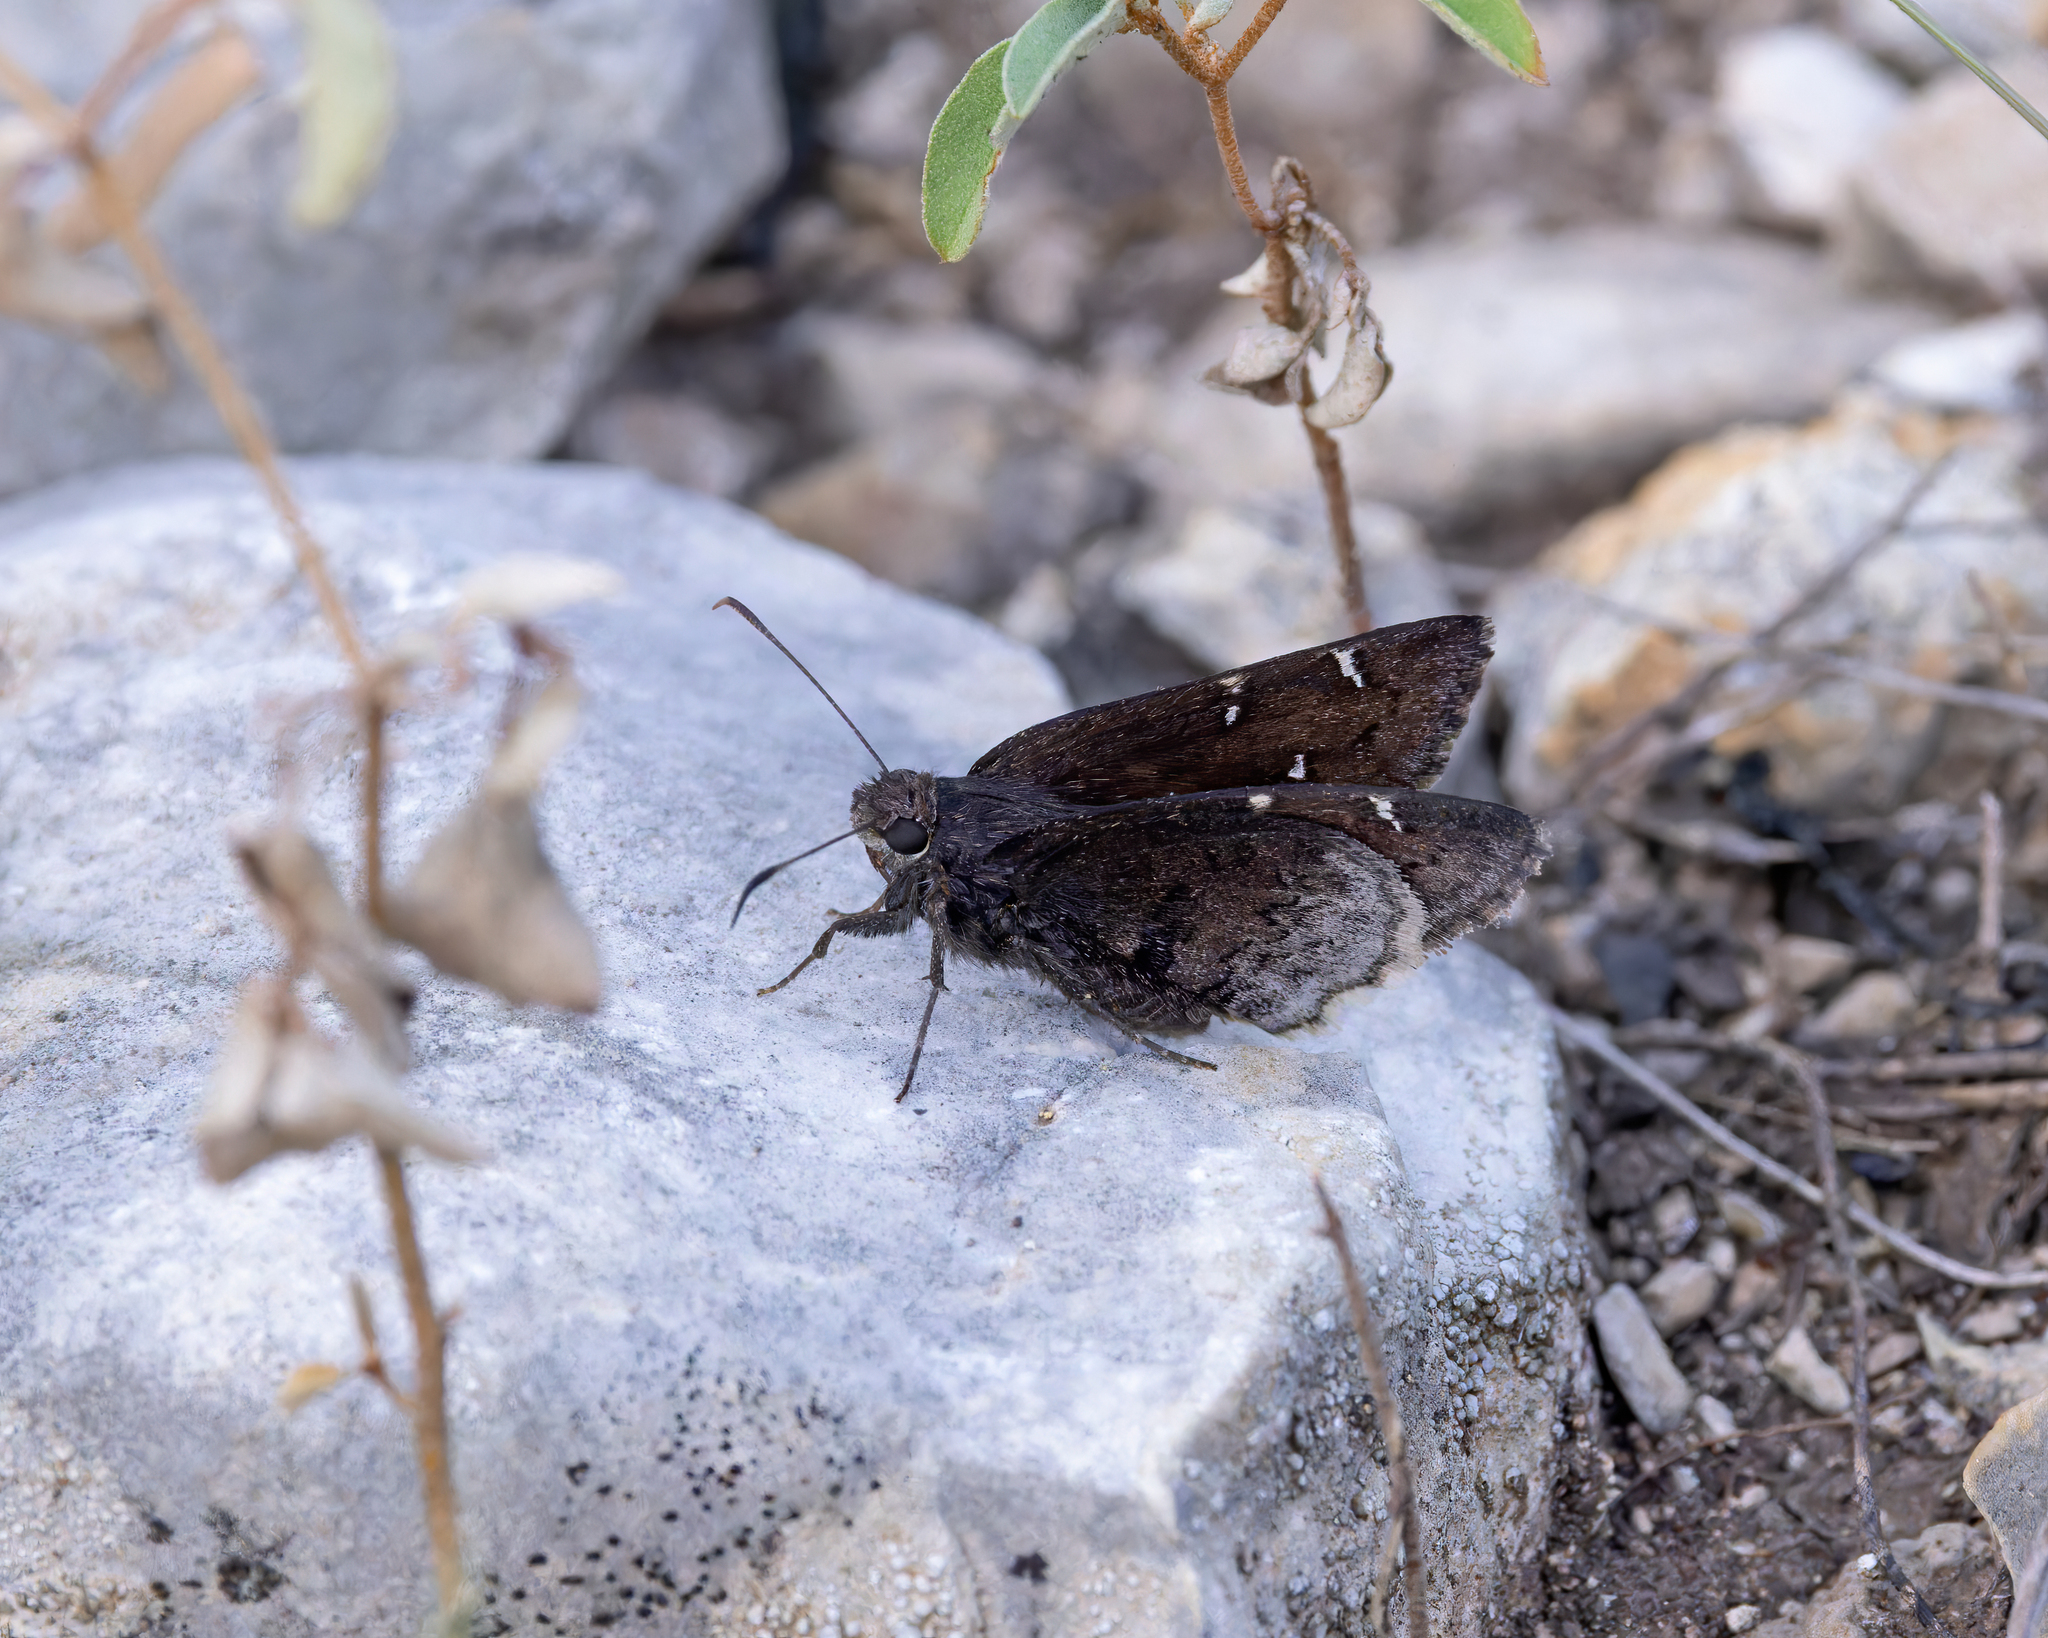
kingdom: Animalia
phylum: Arthropoda
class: Insecta
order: Lepidoptera
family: Hesperiidae
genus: Thorybes
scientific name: Thorybes pylades
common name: Northern cloudywing
